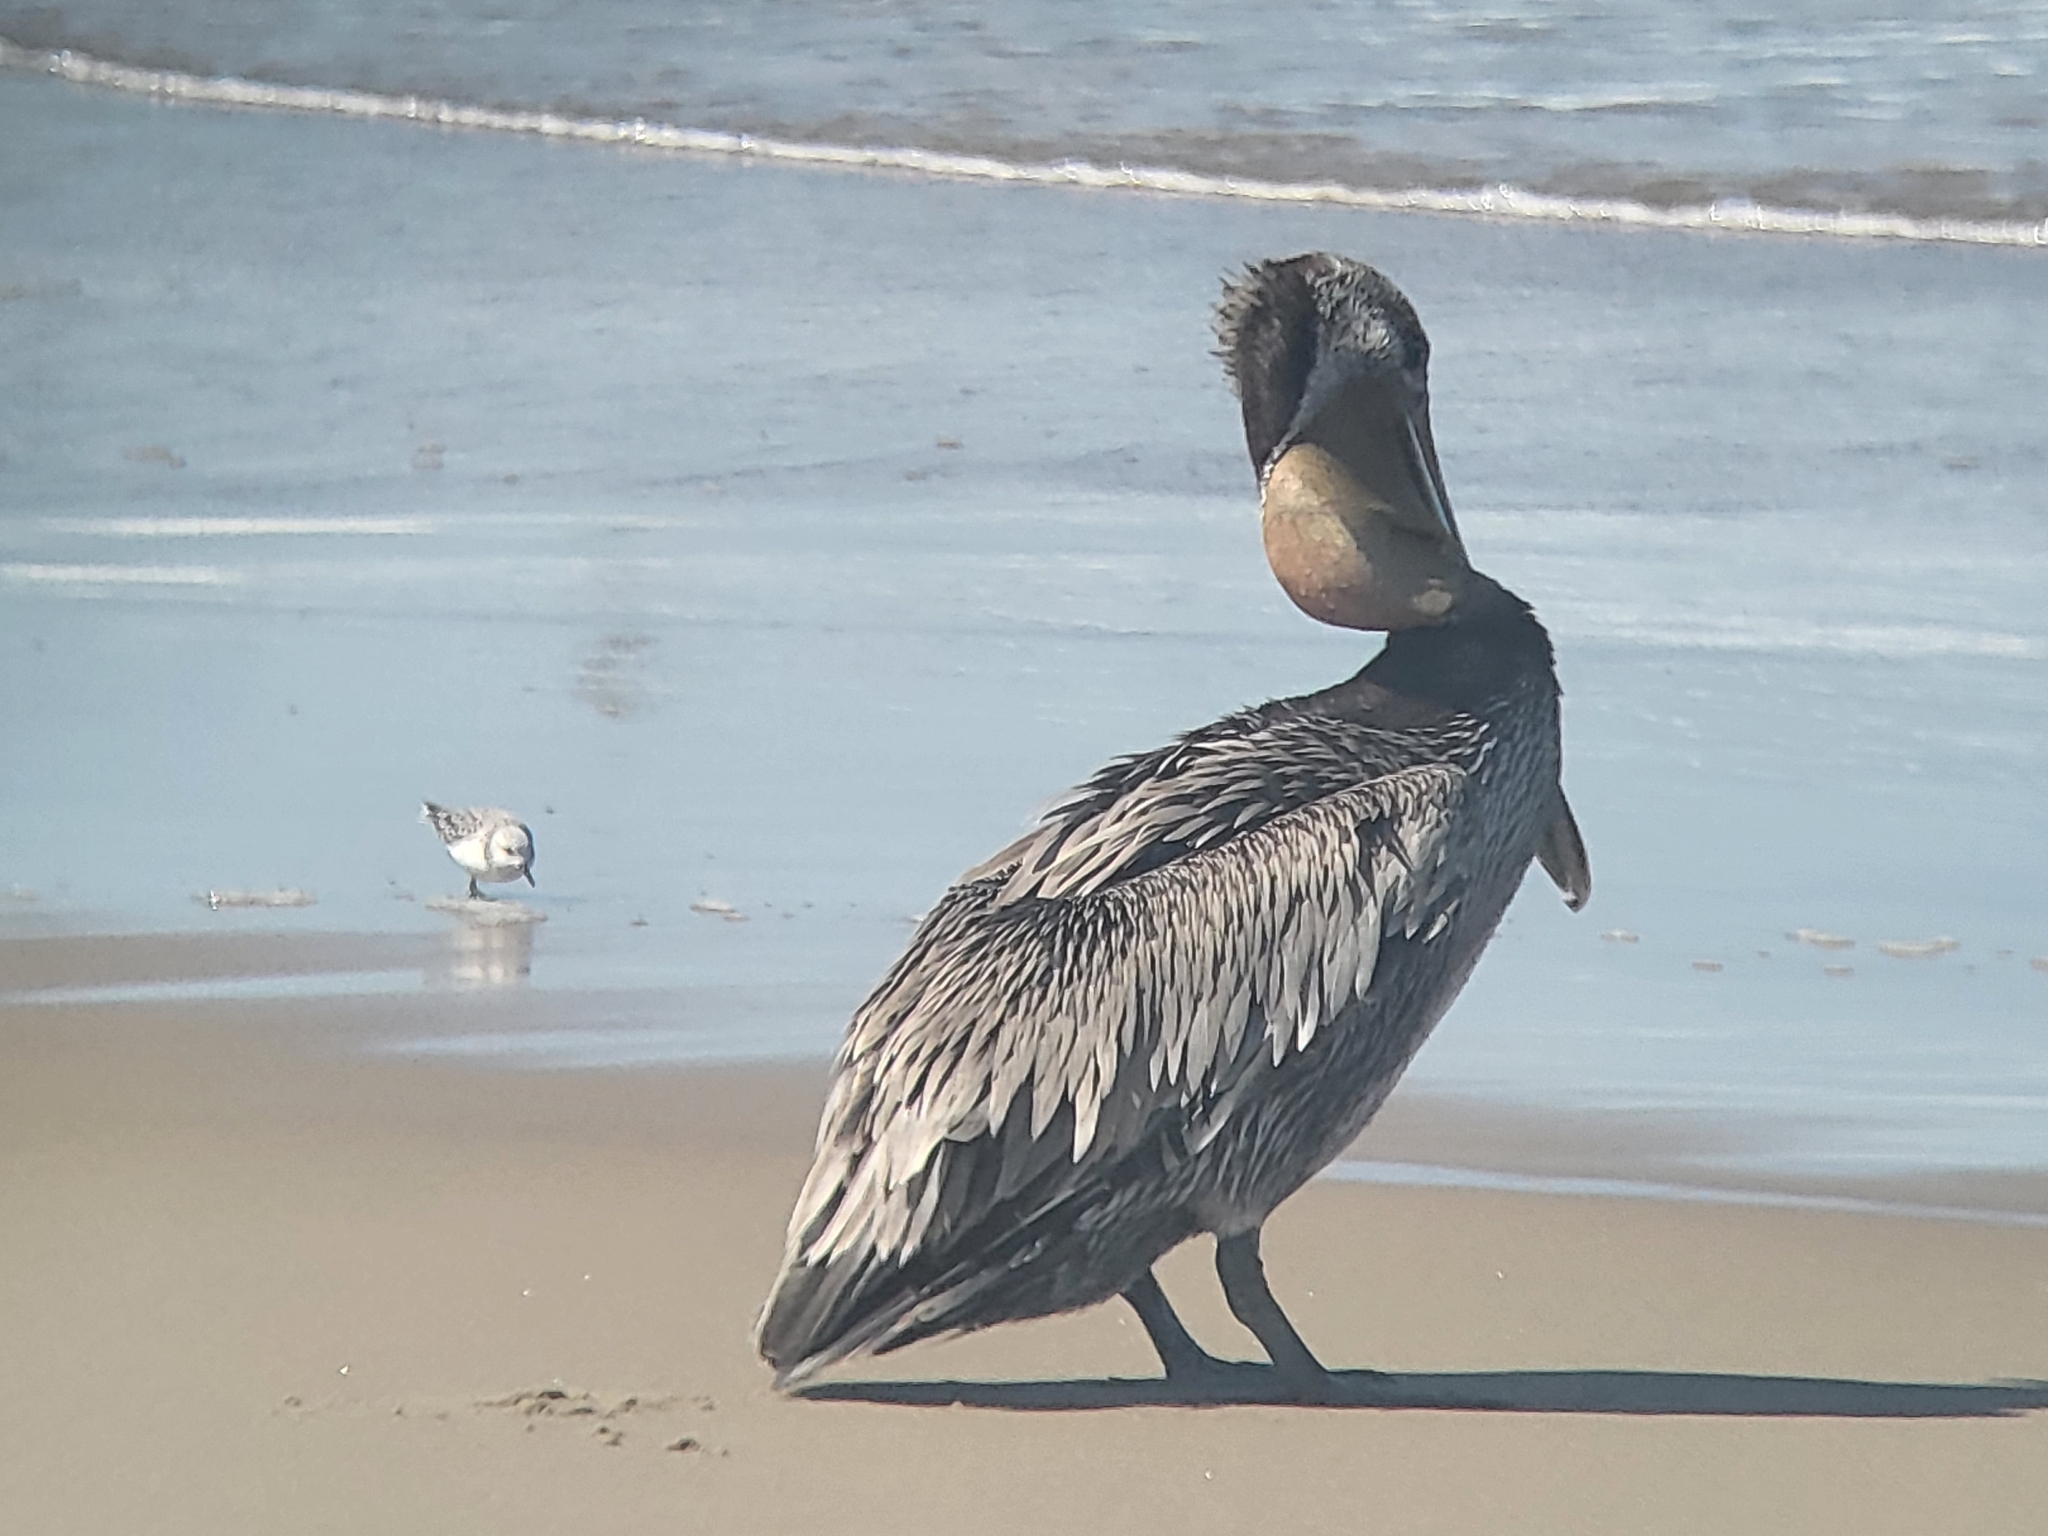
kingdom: Animalia
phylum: Chordata
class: Aves
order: Pelecaniformes
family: Pelecanidae
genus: Pelecanus
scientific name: Pelecanus occidentalis
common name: Brown pelican
